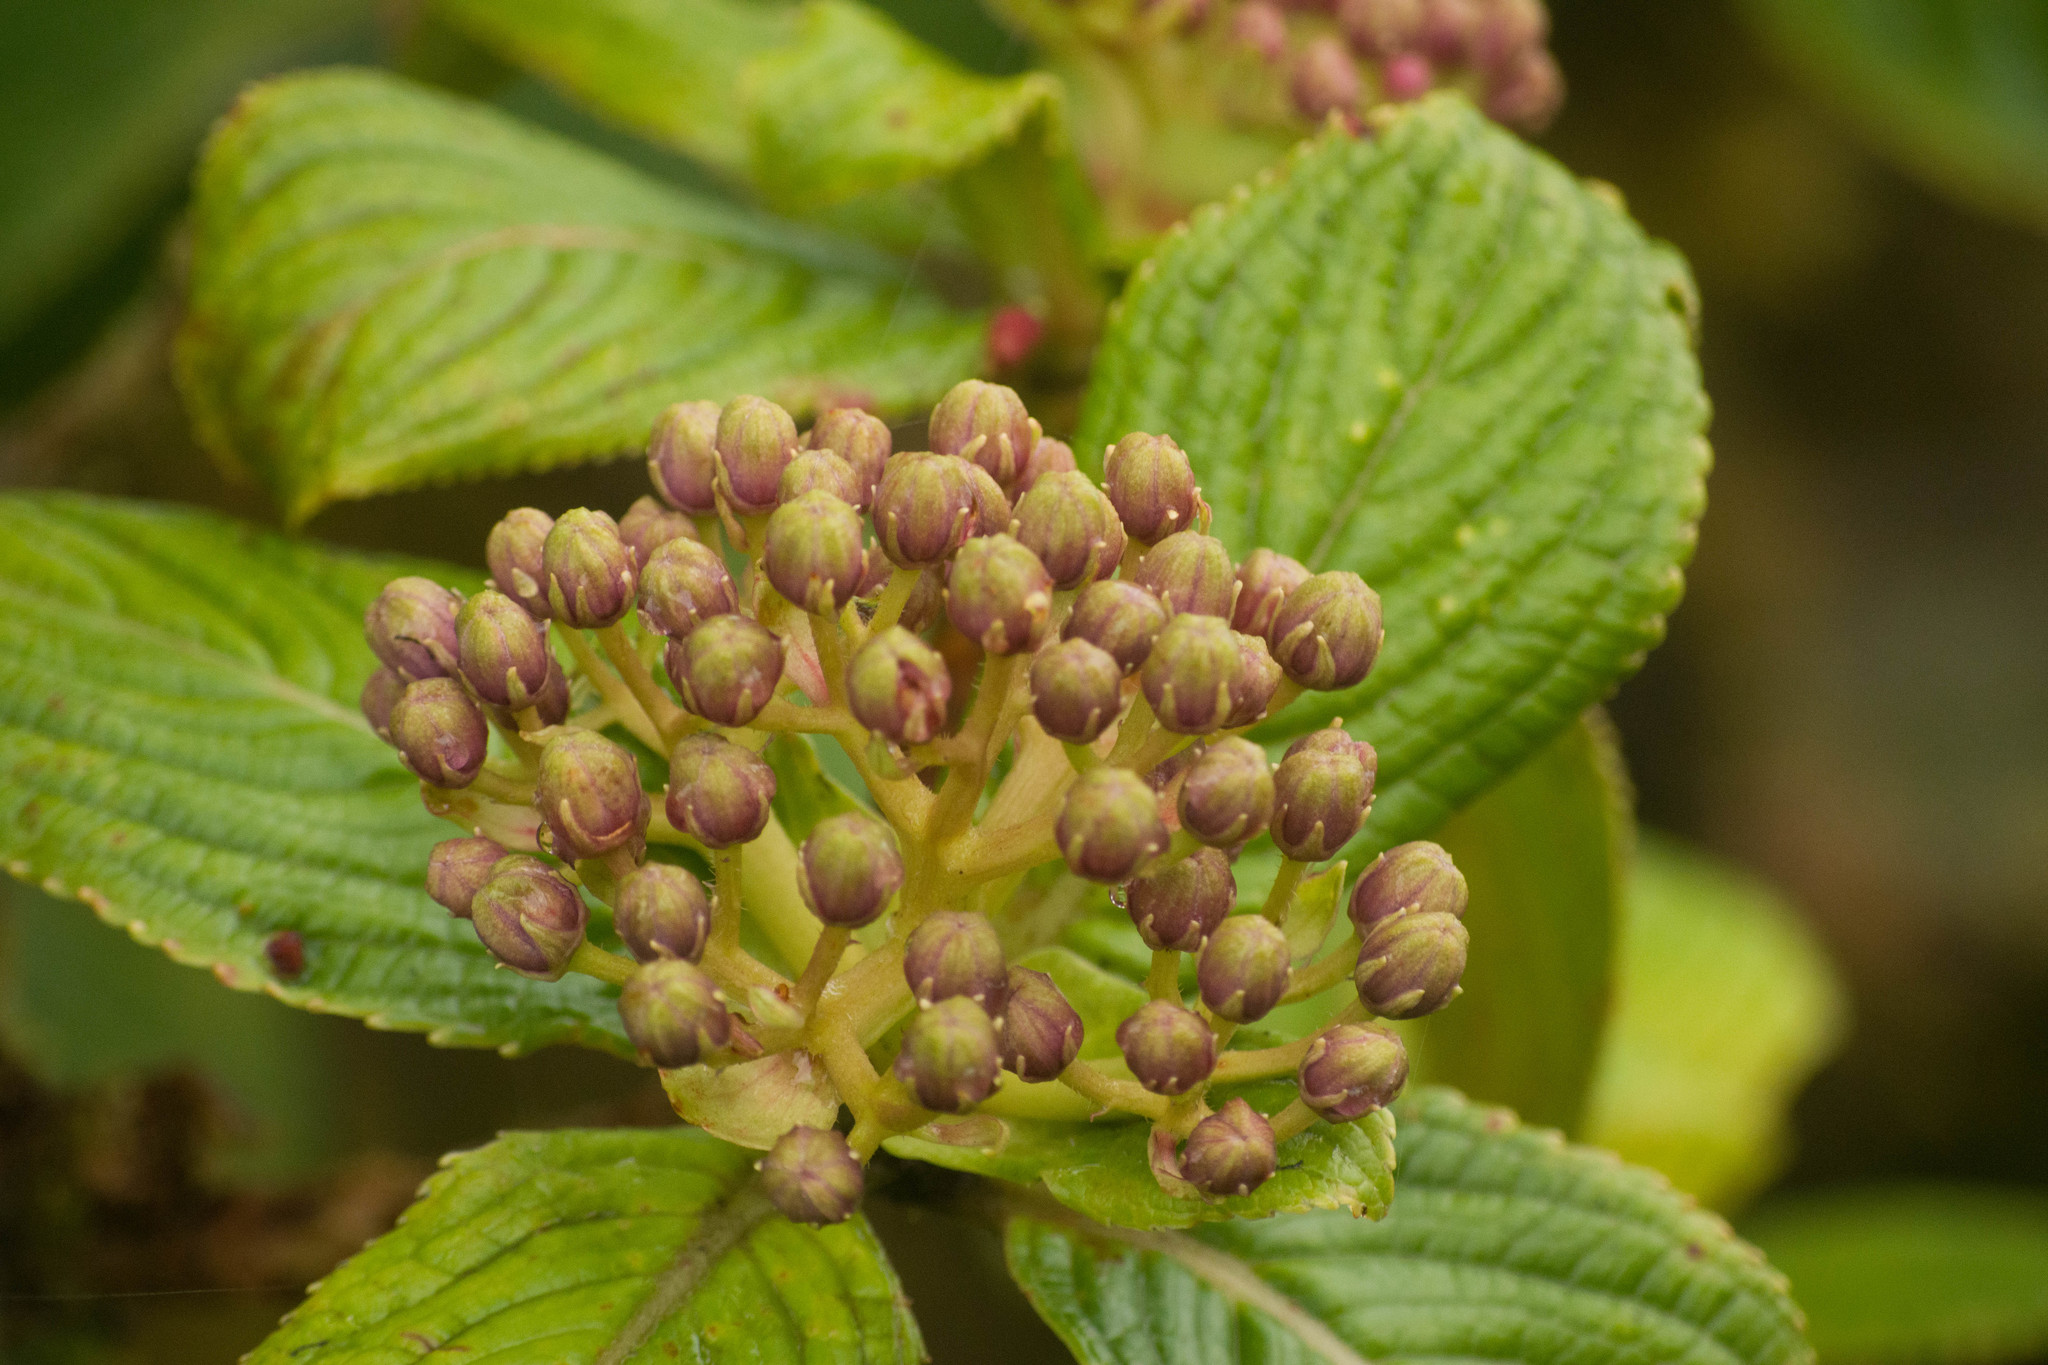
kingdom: Plantae
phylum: Tracheophyta
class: Magnoliopsida
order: Cornales
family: Hydrangeaceae
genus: Hydrangea
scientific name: Hydrangea arguta
